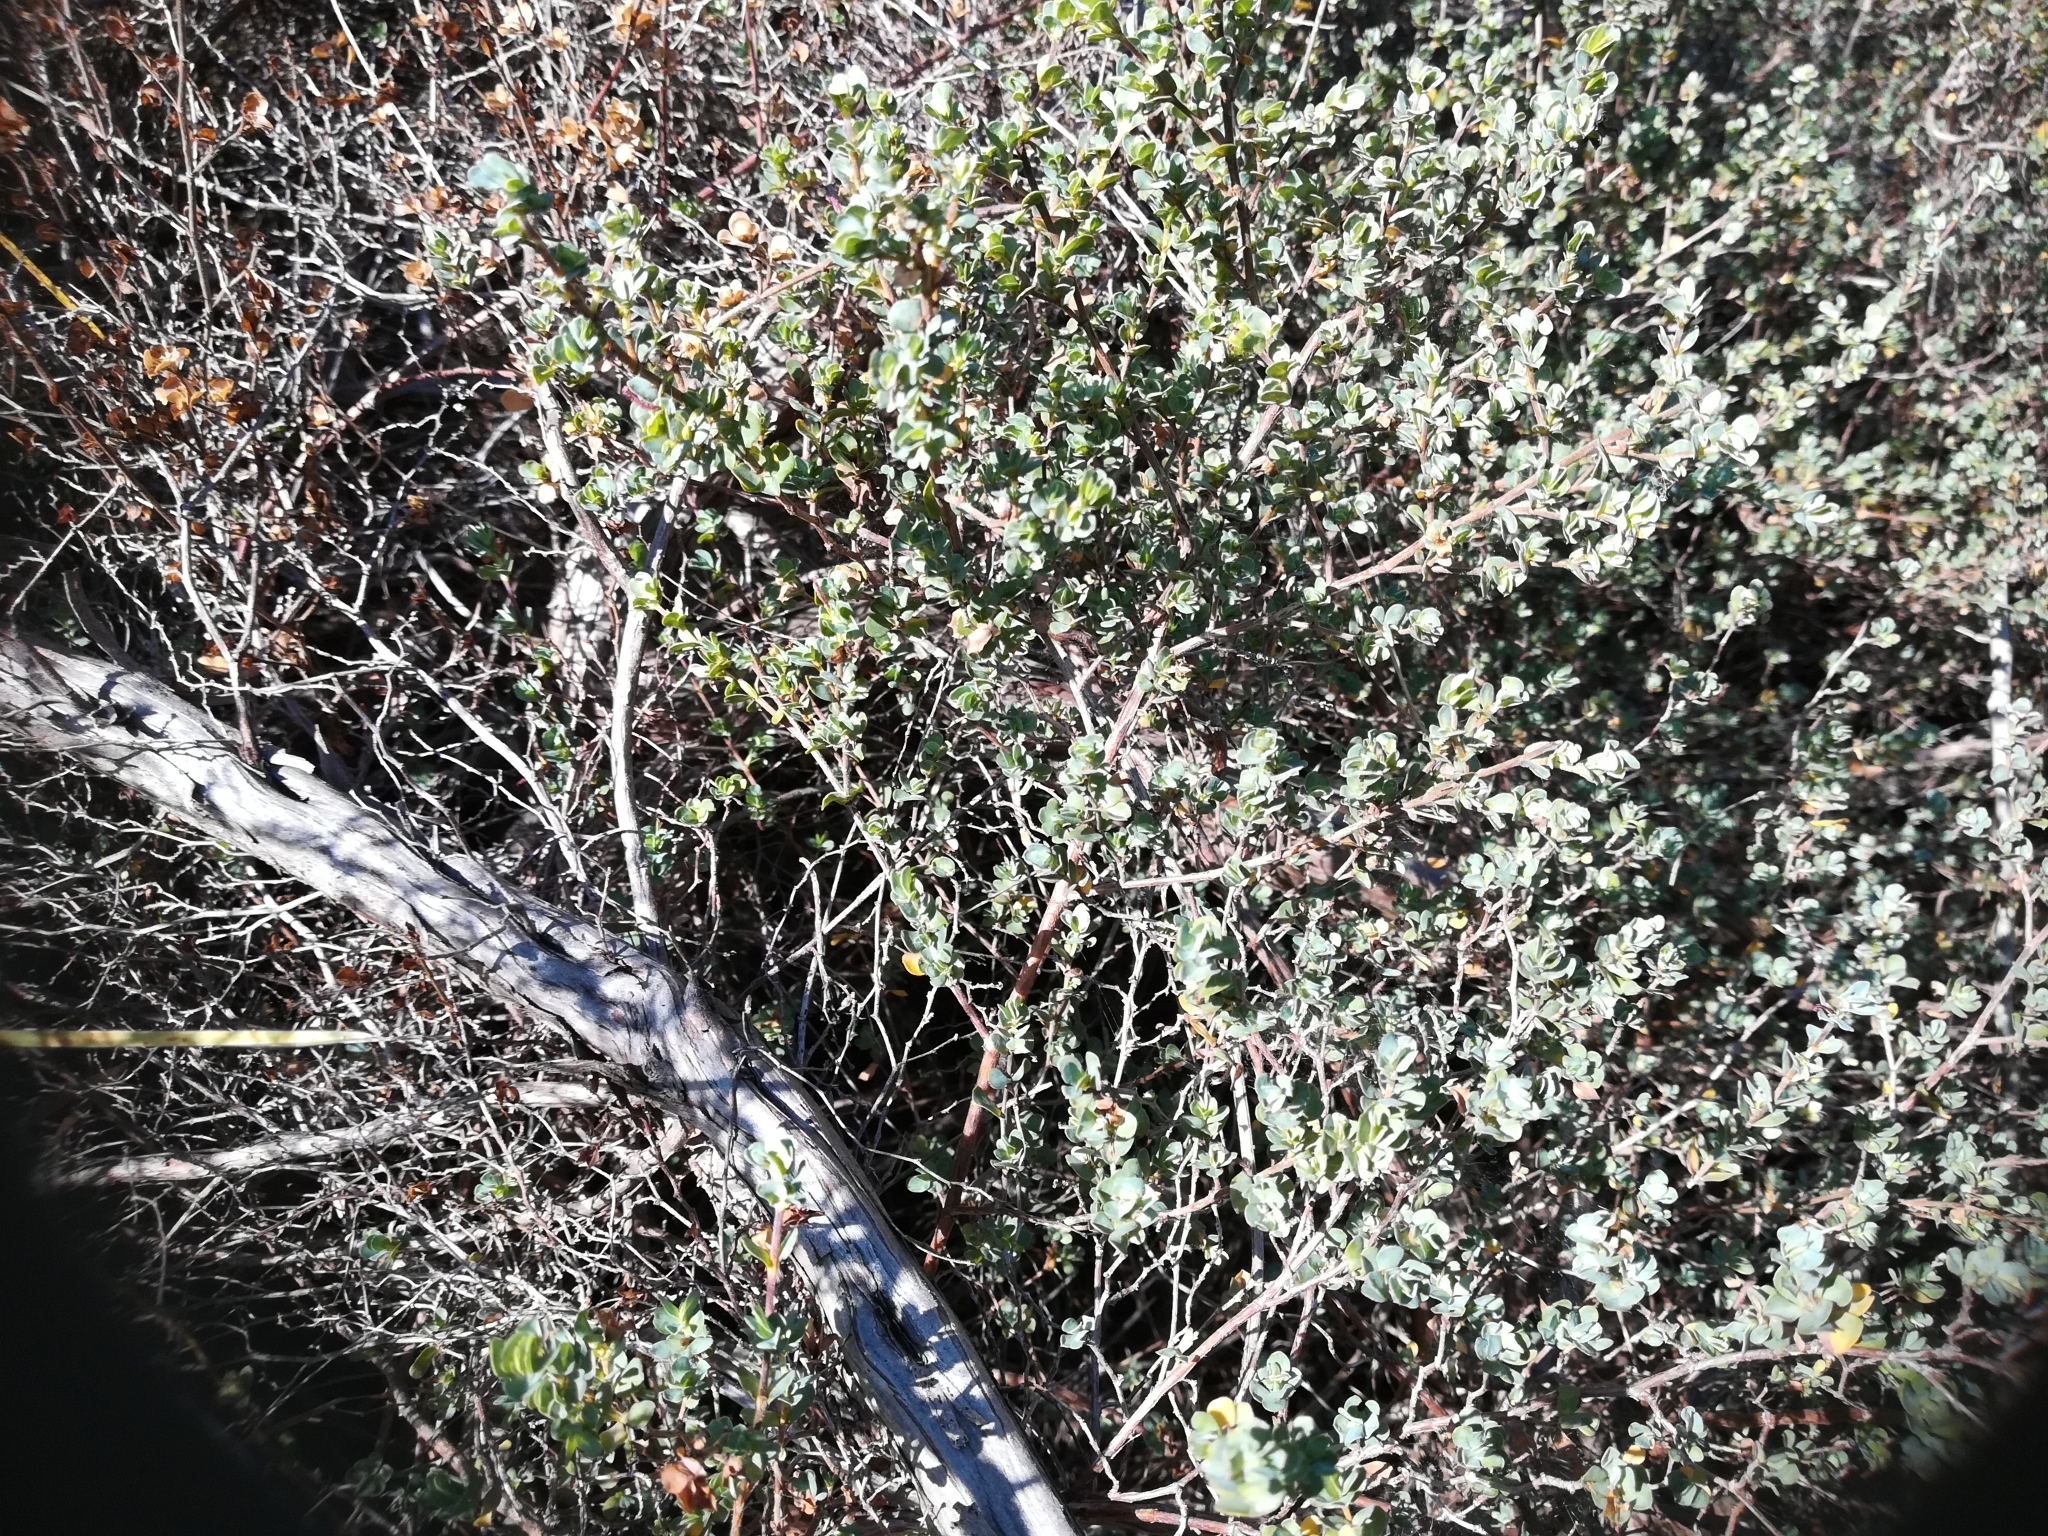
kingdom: Plantae
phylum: Tracheophyta
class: Magnoliopsida
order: Rosales
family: Rosaceae
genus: Cliffortia
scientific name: Cliffortia obcordata
